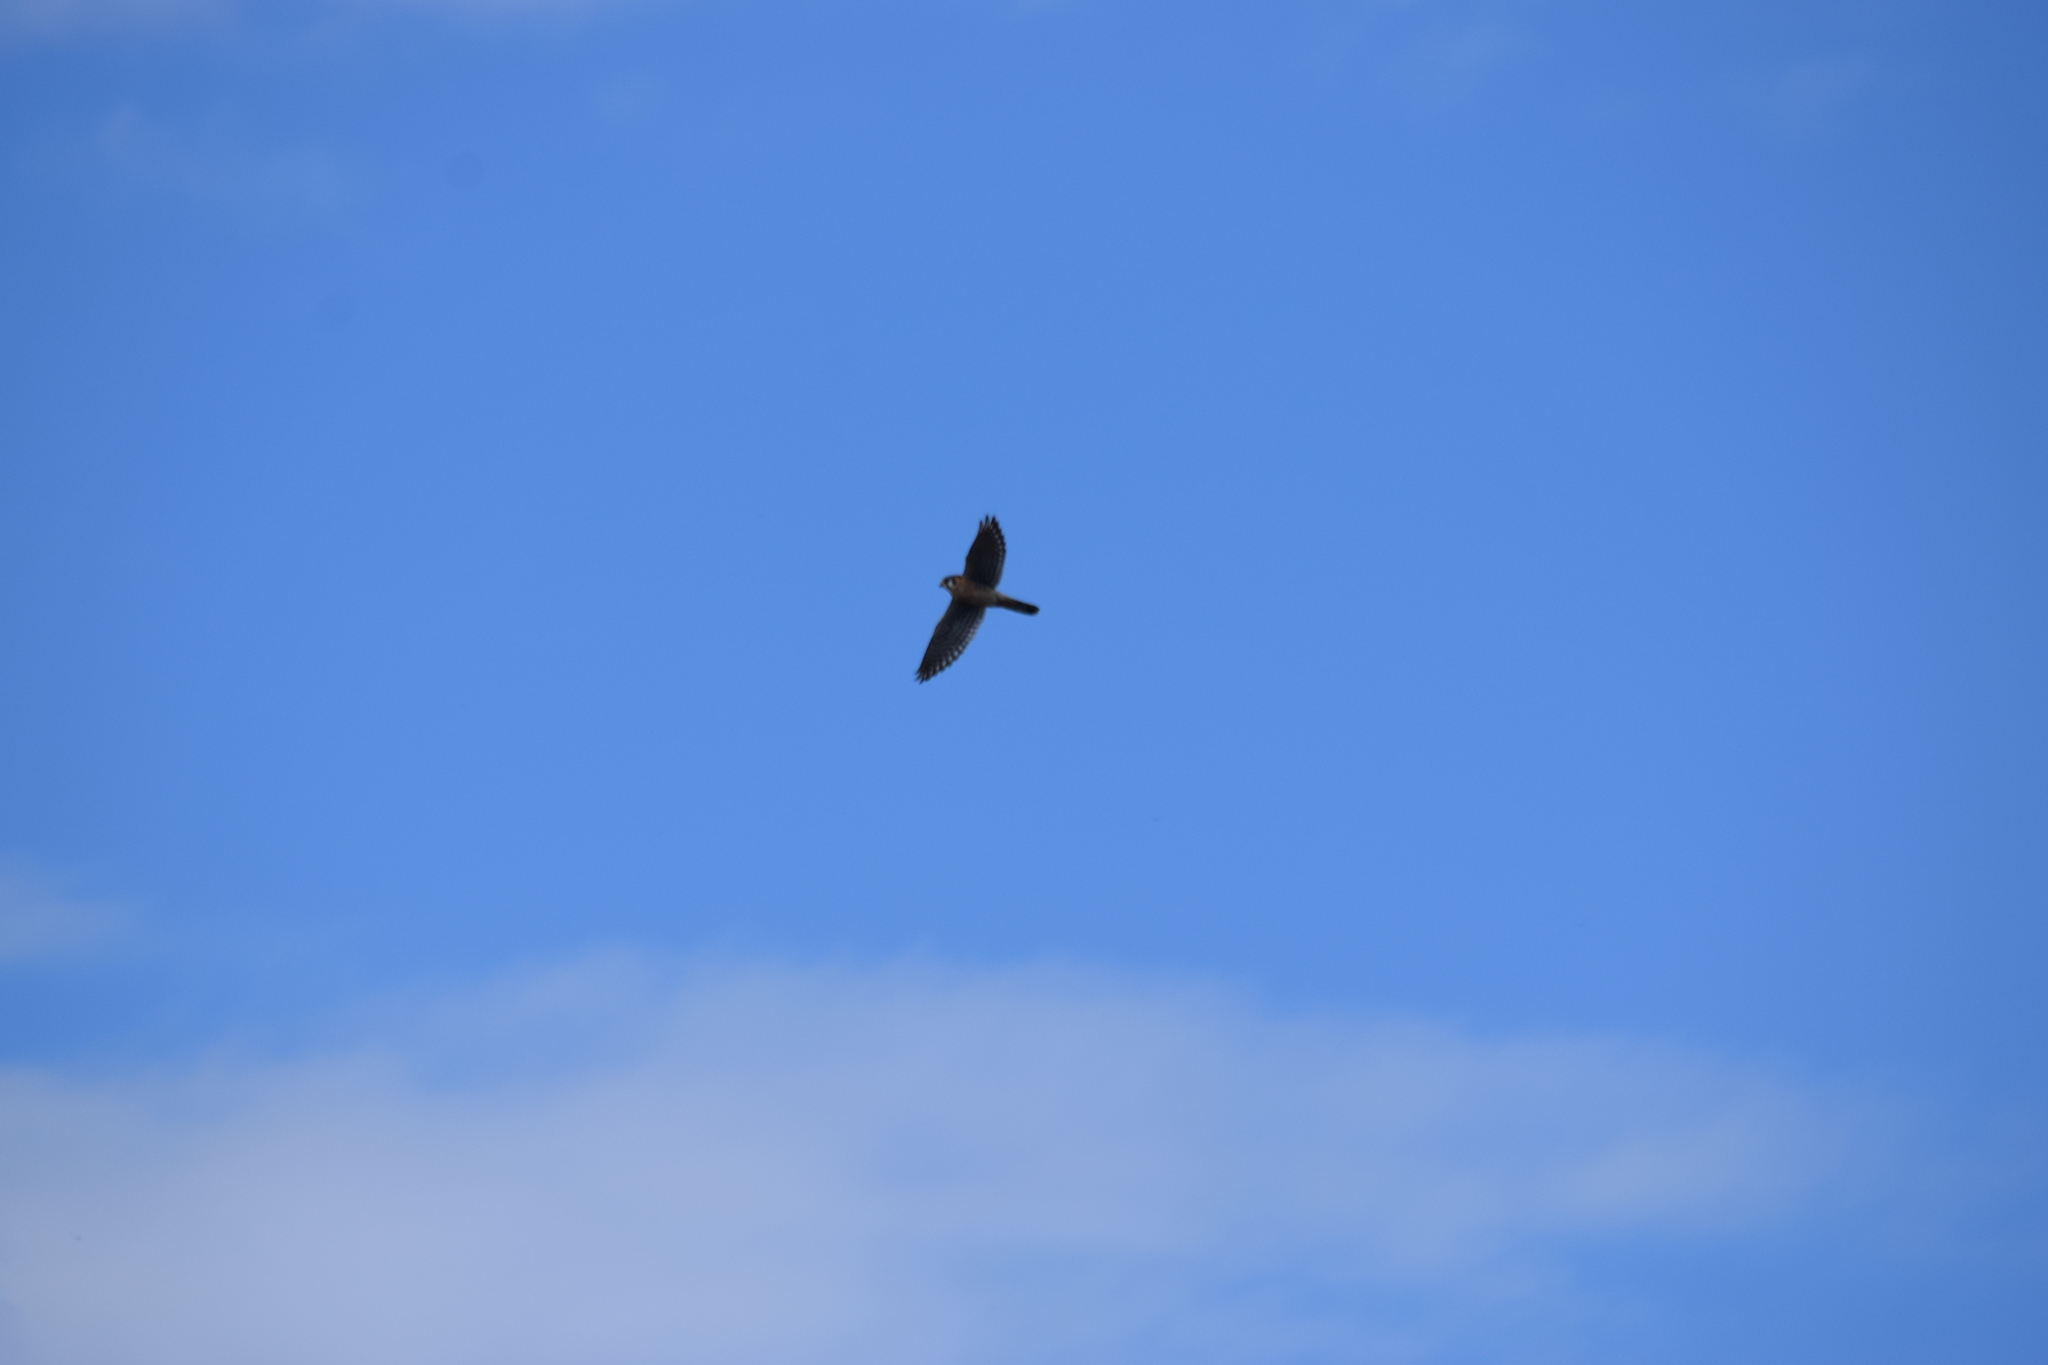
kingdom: Animalia
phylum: Chordata
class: Aves
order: Falconiformes
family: Falconidae
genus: Falco
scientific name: Falco sparverius
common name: American kestrel
